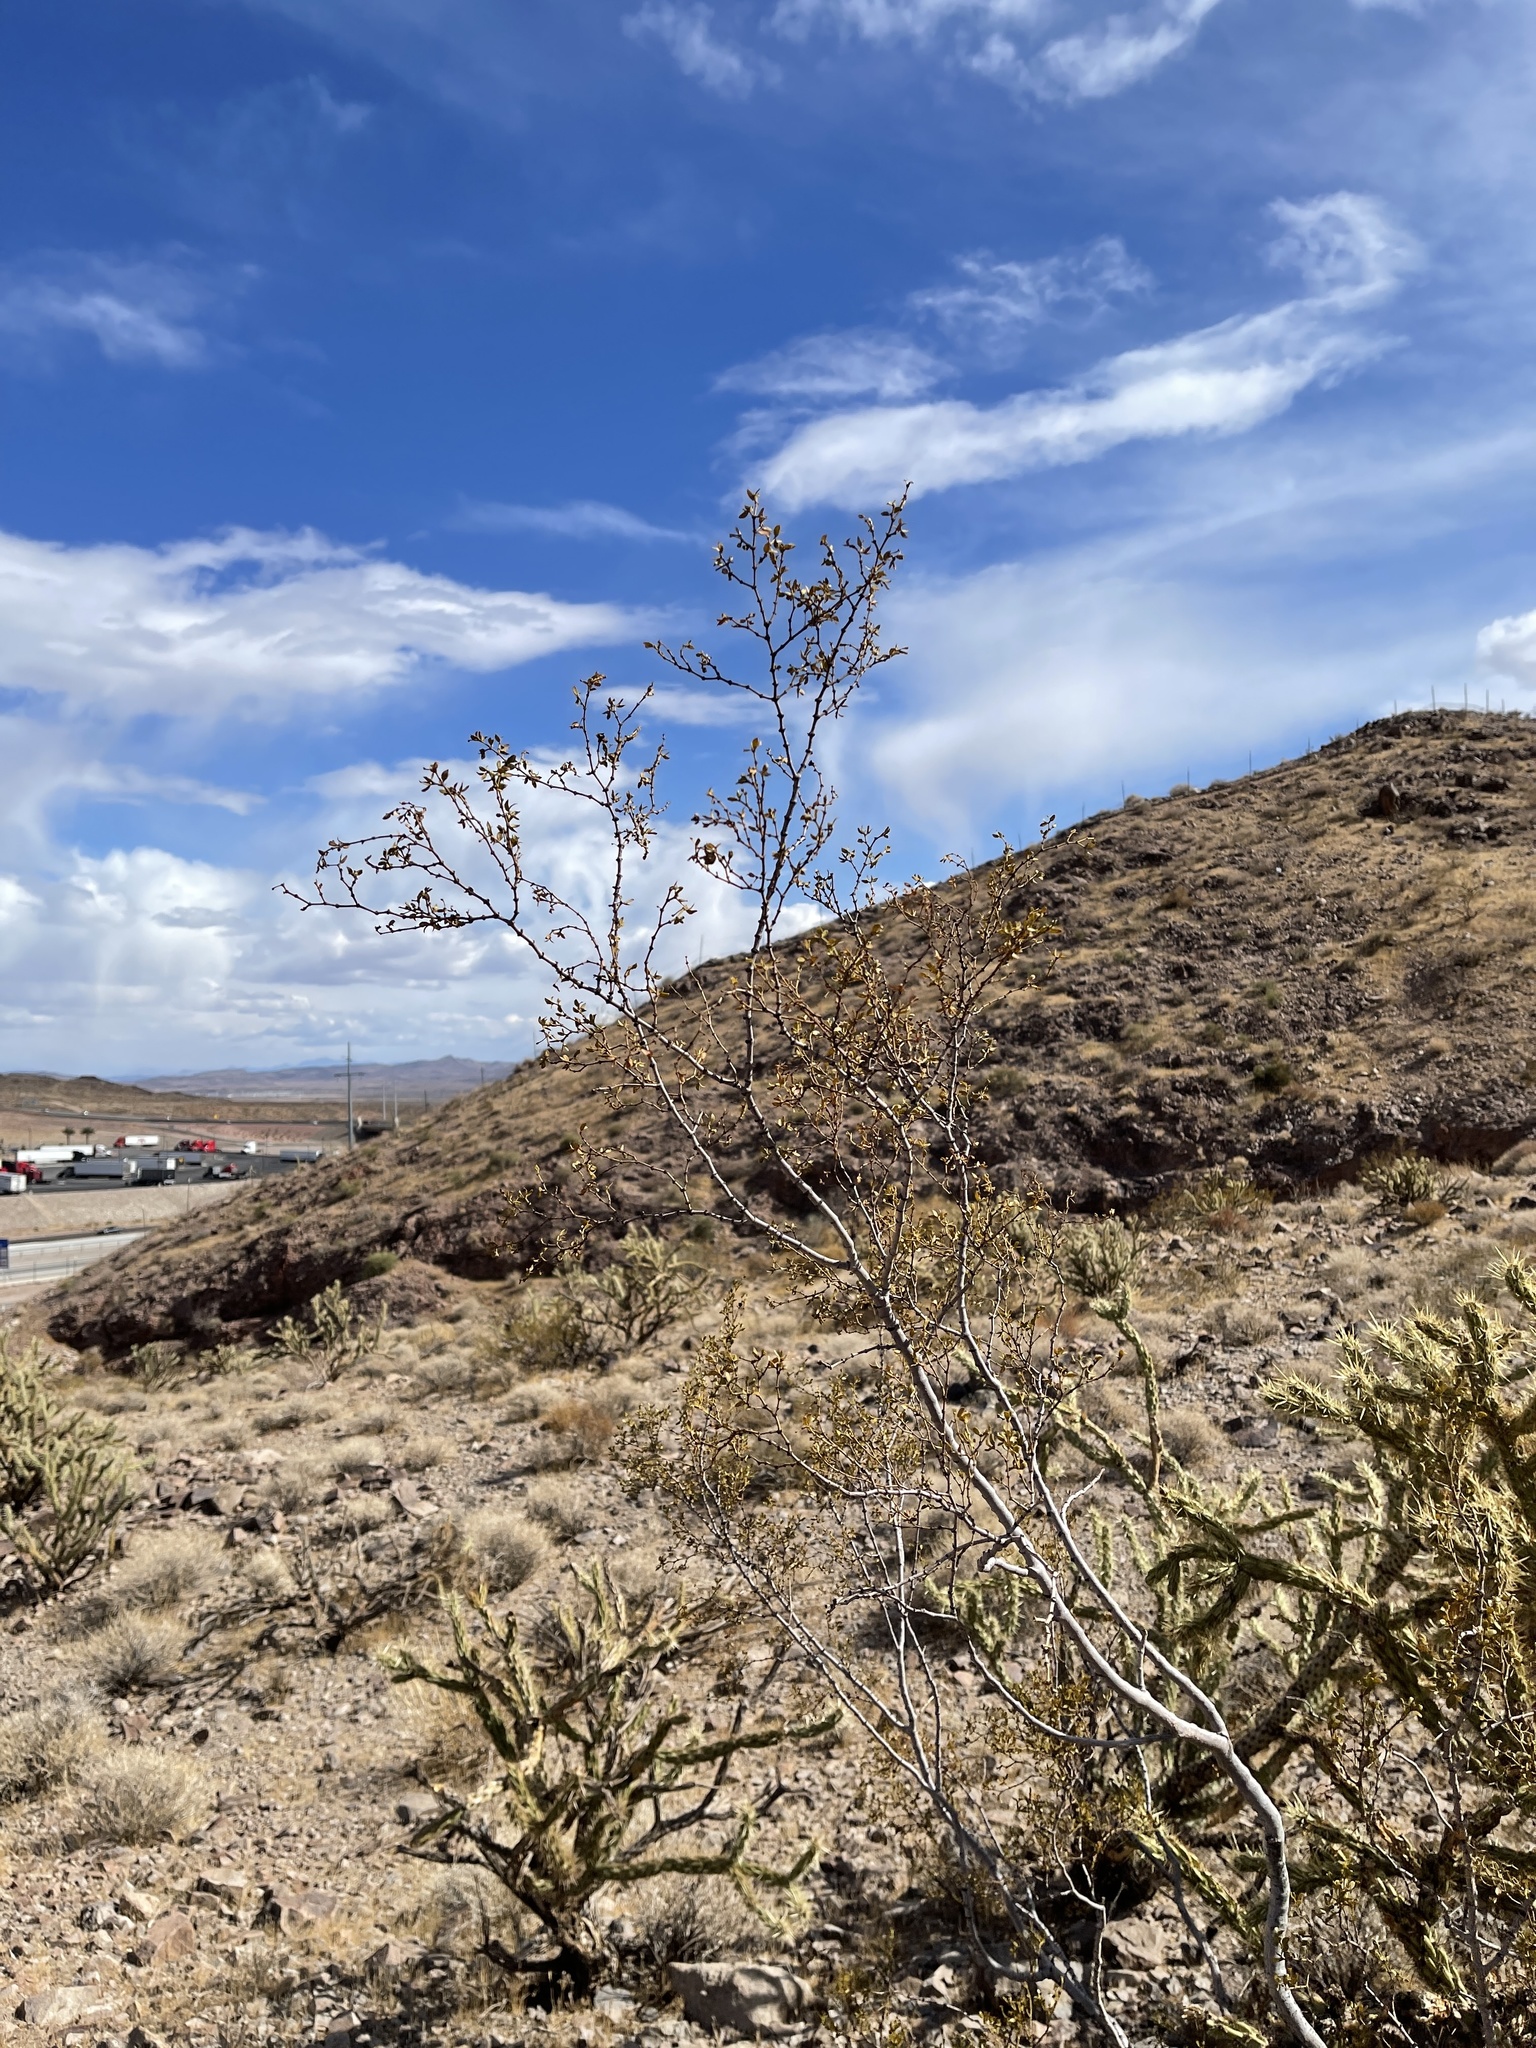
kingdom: Plantae
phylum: Tracheophyta
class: Magnoliopsida
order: Zygophyllales
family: Zygophyllaceae
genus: Larrea
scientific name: Larrea tridentata
